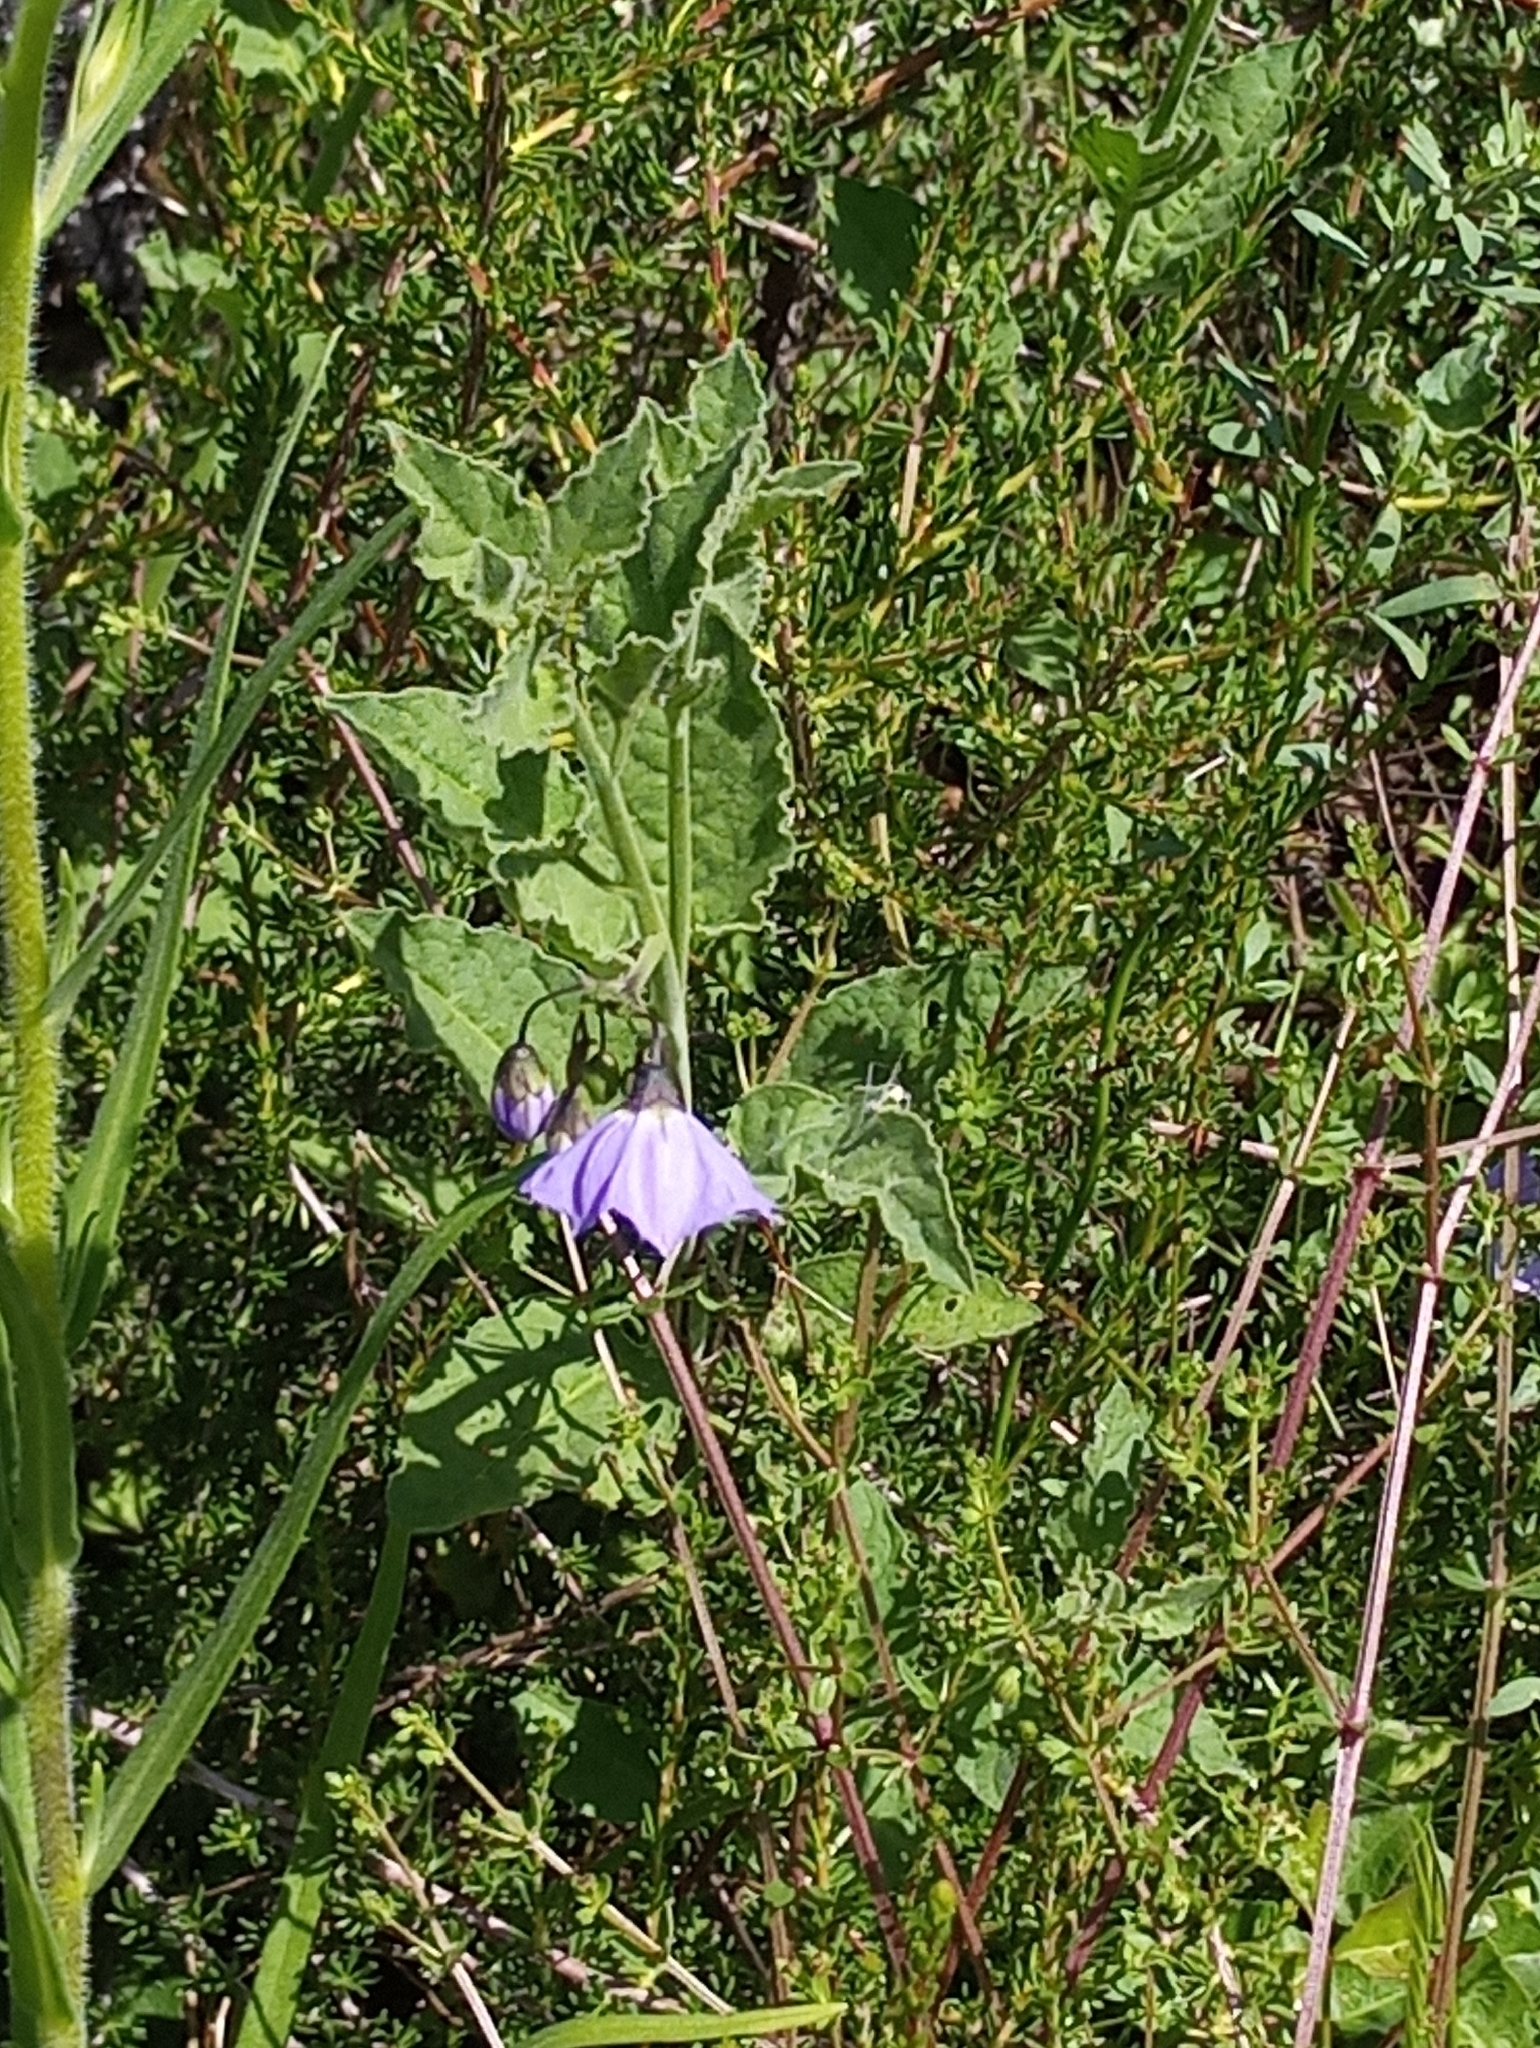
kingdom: Plantae
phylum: Tracheophyta
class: Magnoliopsida
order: Solanales
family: Solanaceae
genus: Solanum
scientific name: Solanum umbelliferum
